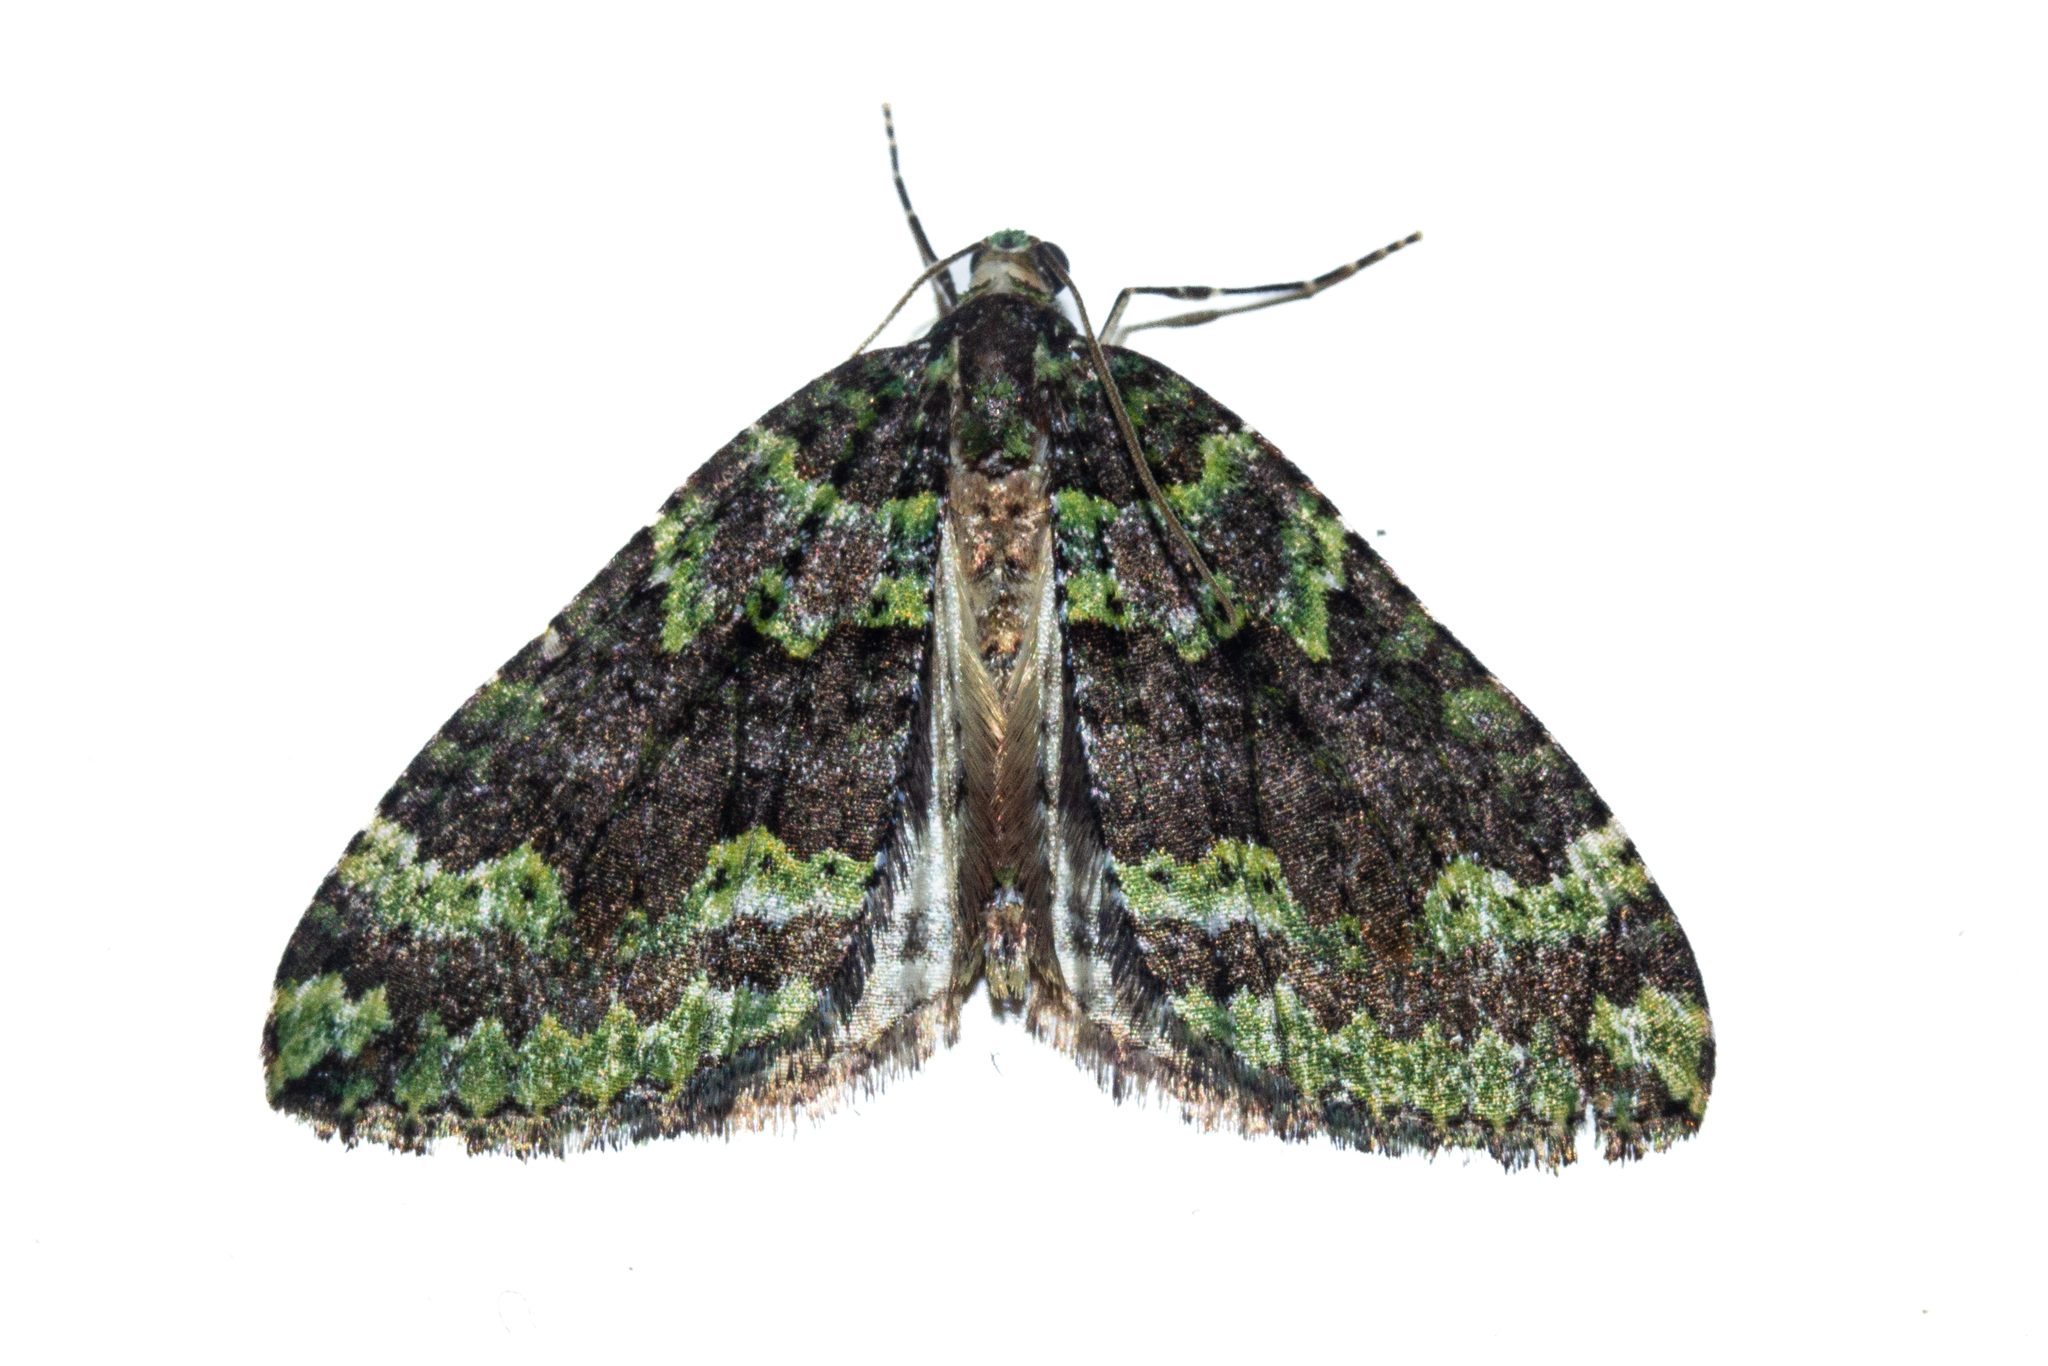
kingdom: Animalia
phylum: Arthropoda
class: Insecta
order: Lepidoptera
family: Geometridae
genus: Austrocidaria
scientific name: Austrocidaria callichlora
